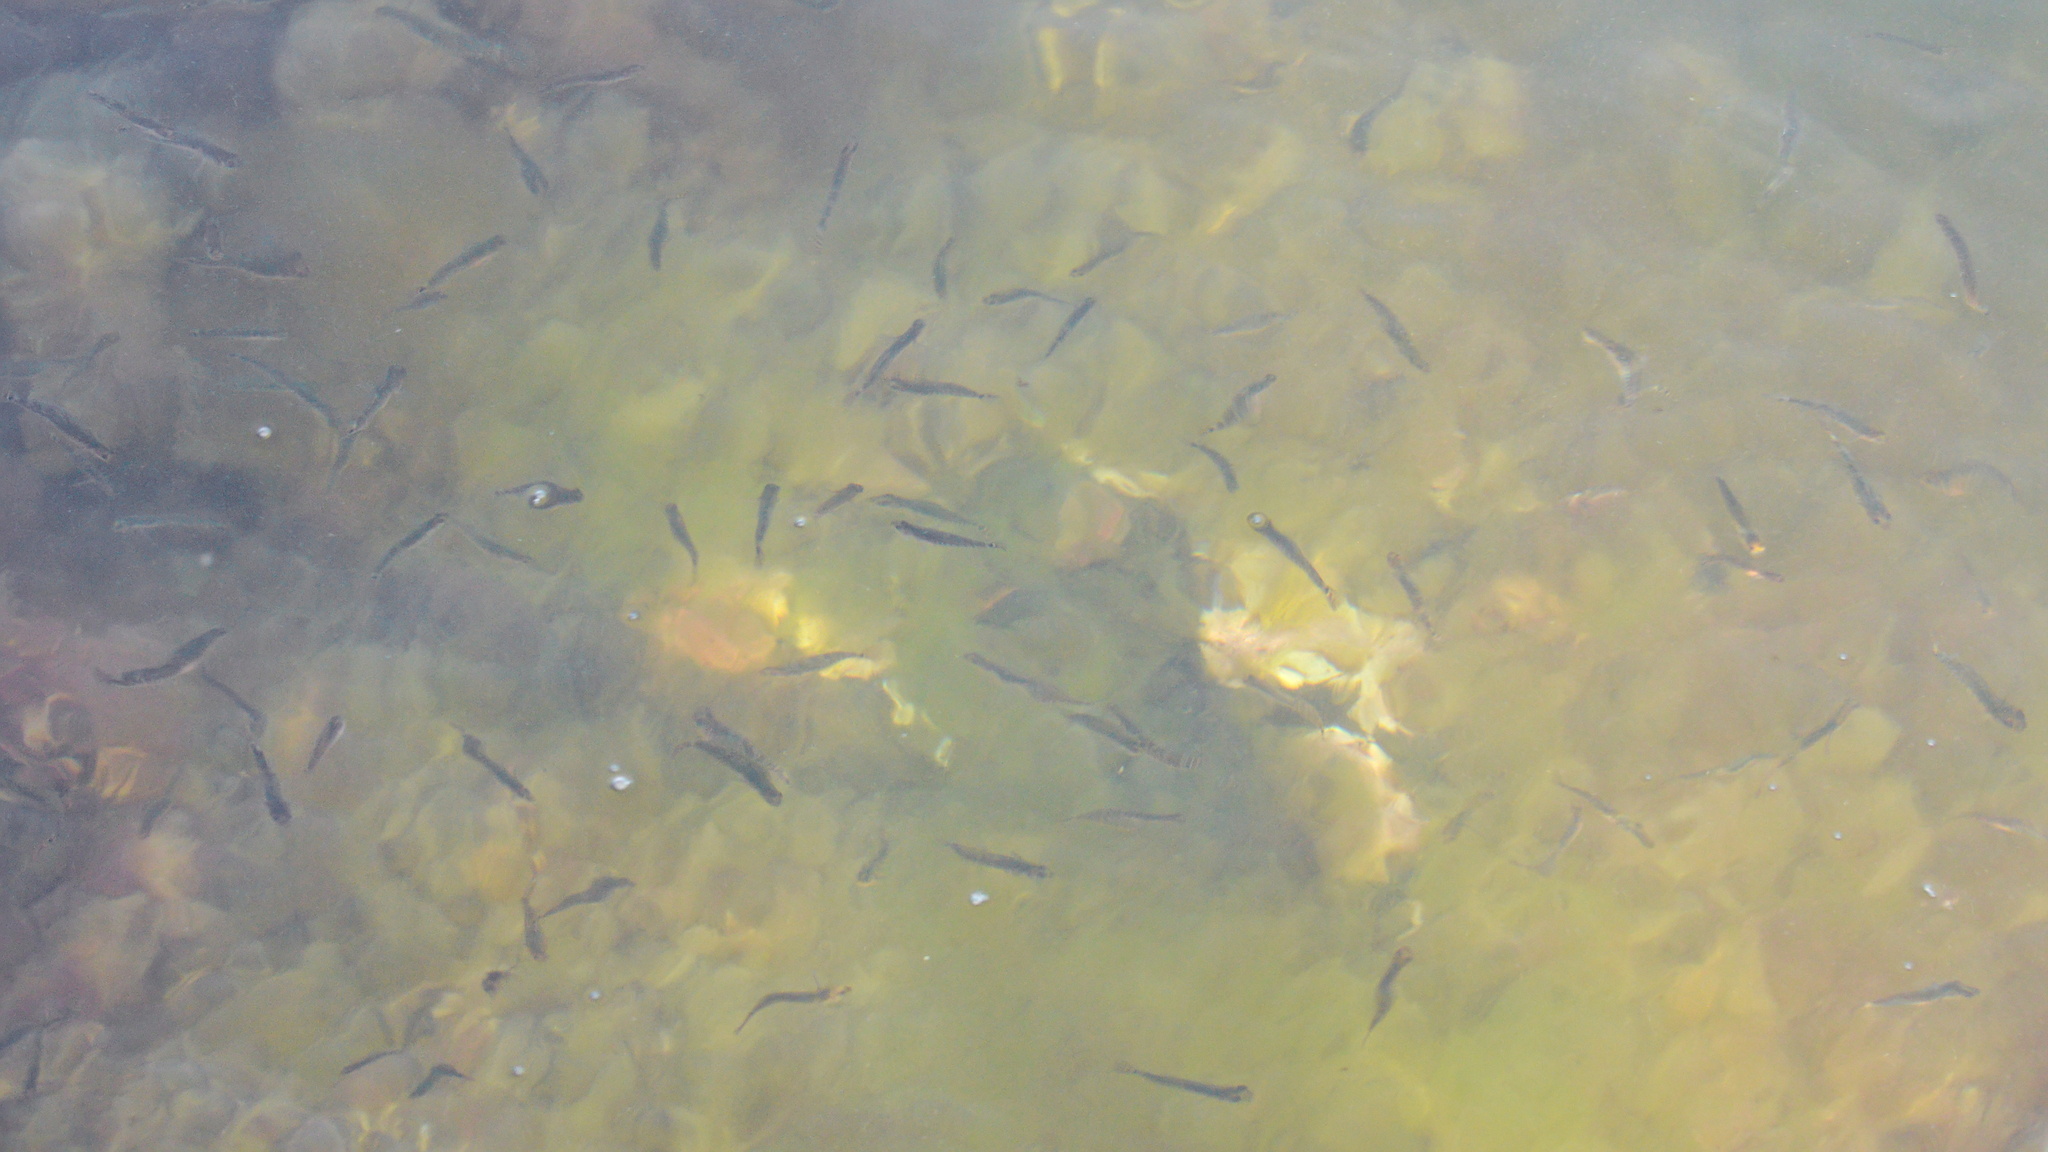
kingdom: Animalia
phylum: Chordata
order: Perciformes
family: Gobiidae
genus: Gobiusculus
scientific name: Gobiusculus flavescens
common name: Two-spotted goby
